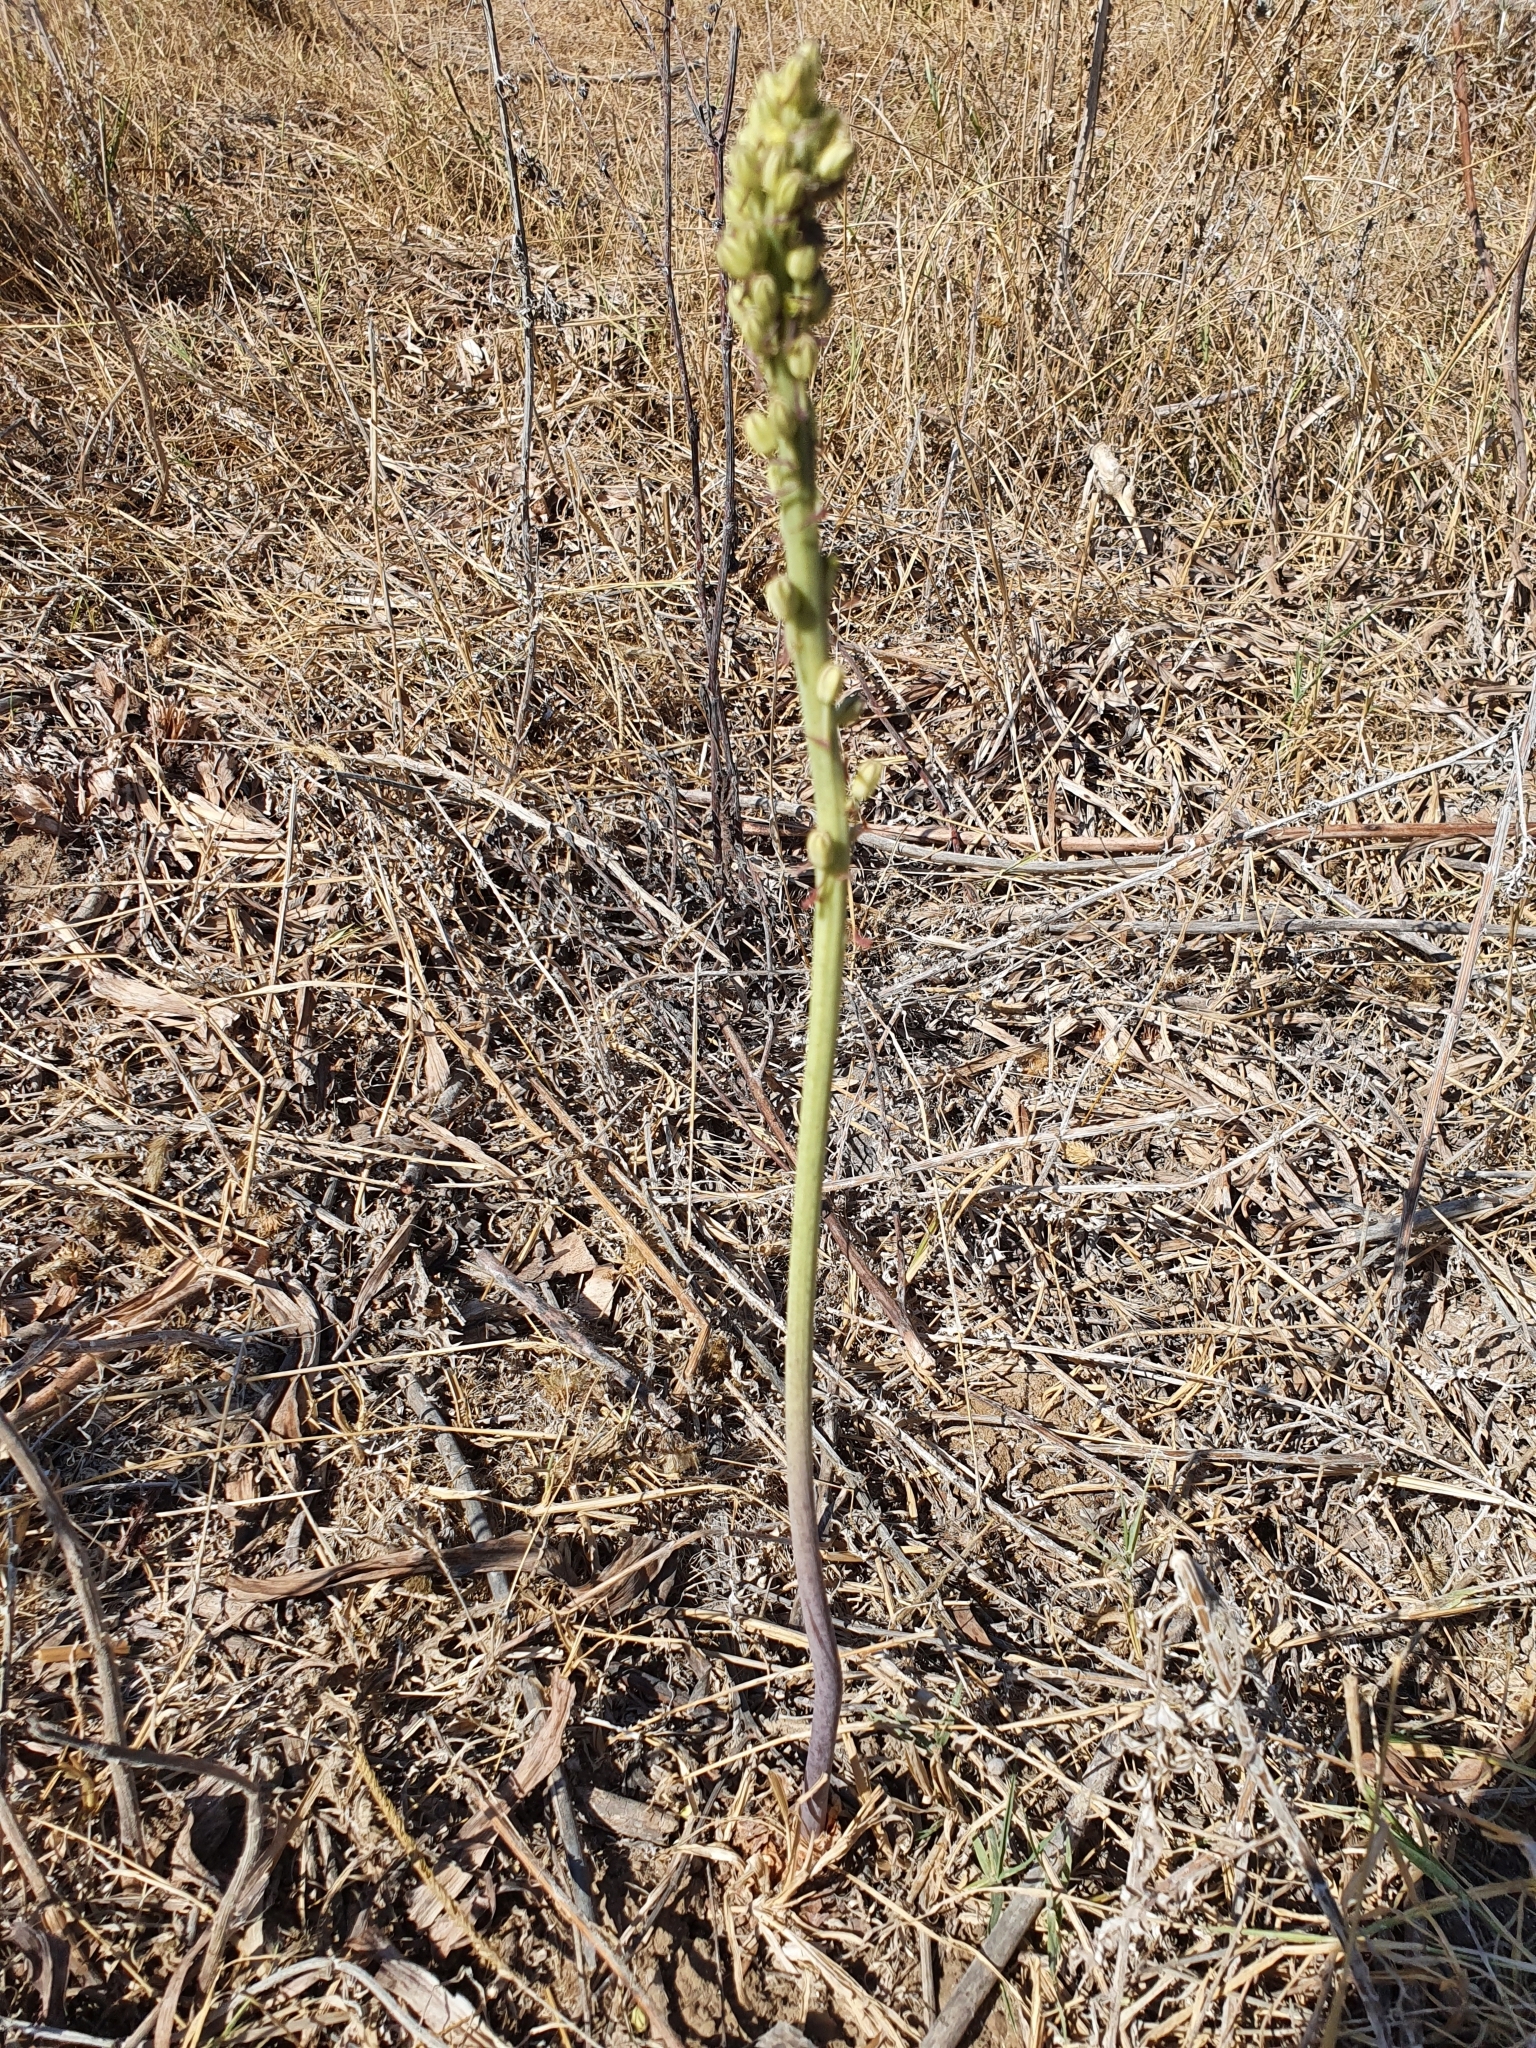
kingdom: Plantae
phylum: Tracheophyta
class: Liliopsida
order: Asparagales
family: Asparagaceae
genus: Drimia
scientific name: Drimia anthericoides
